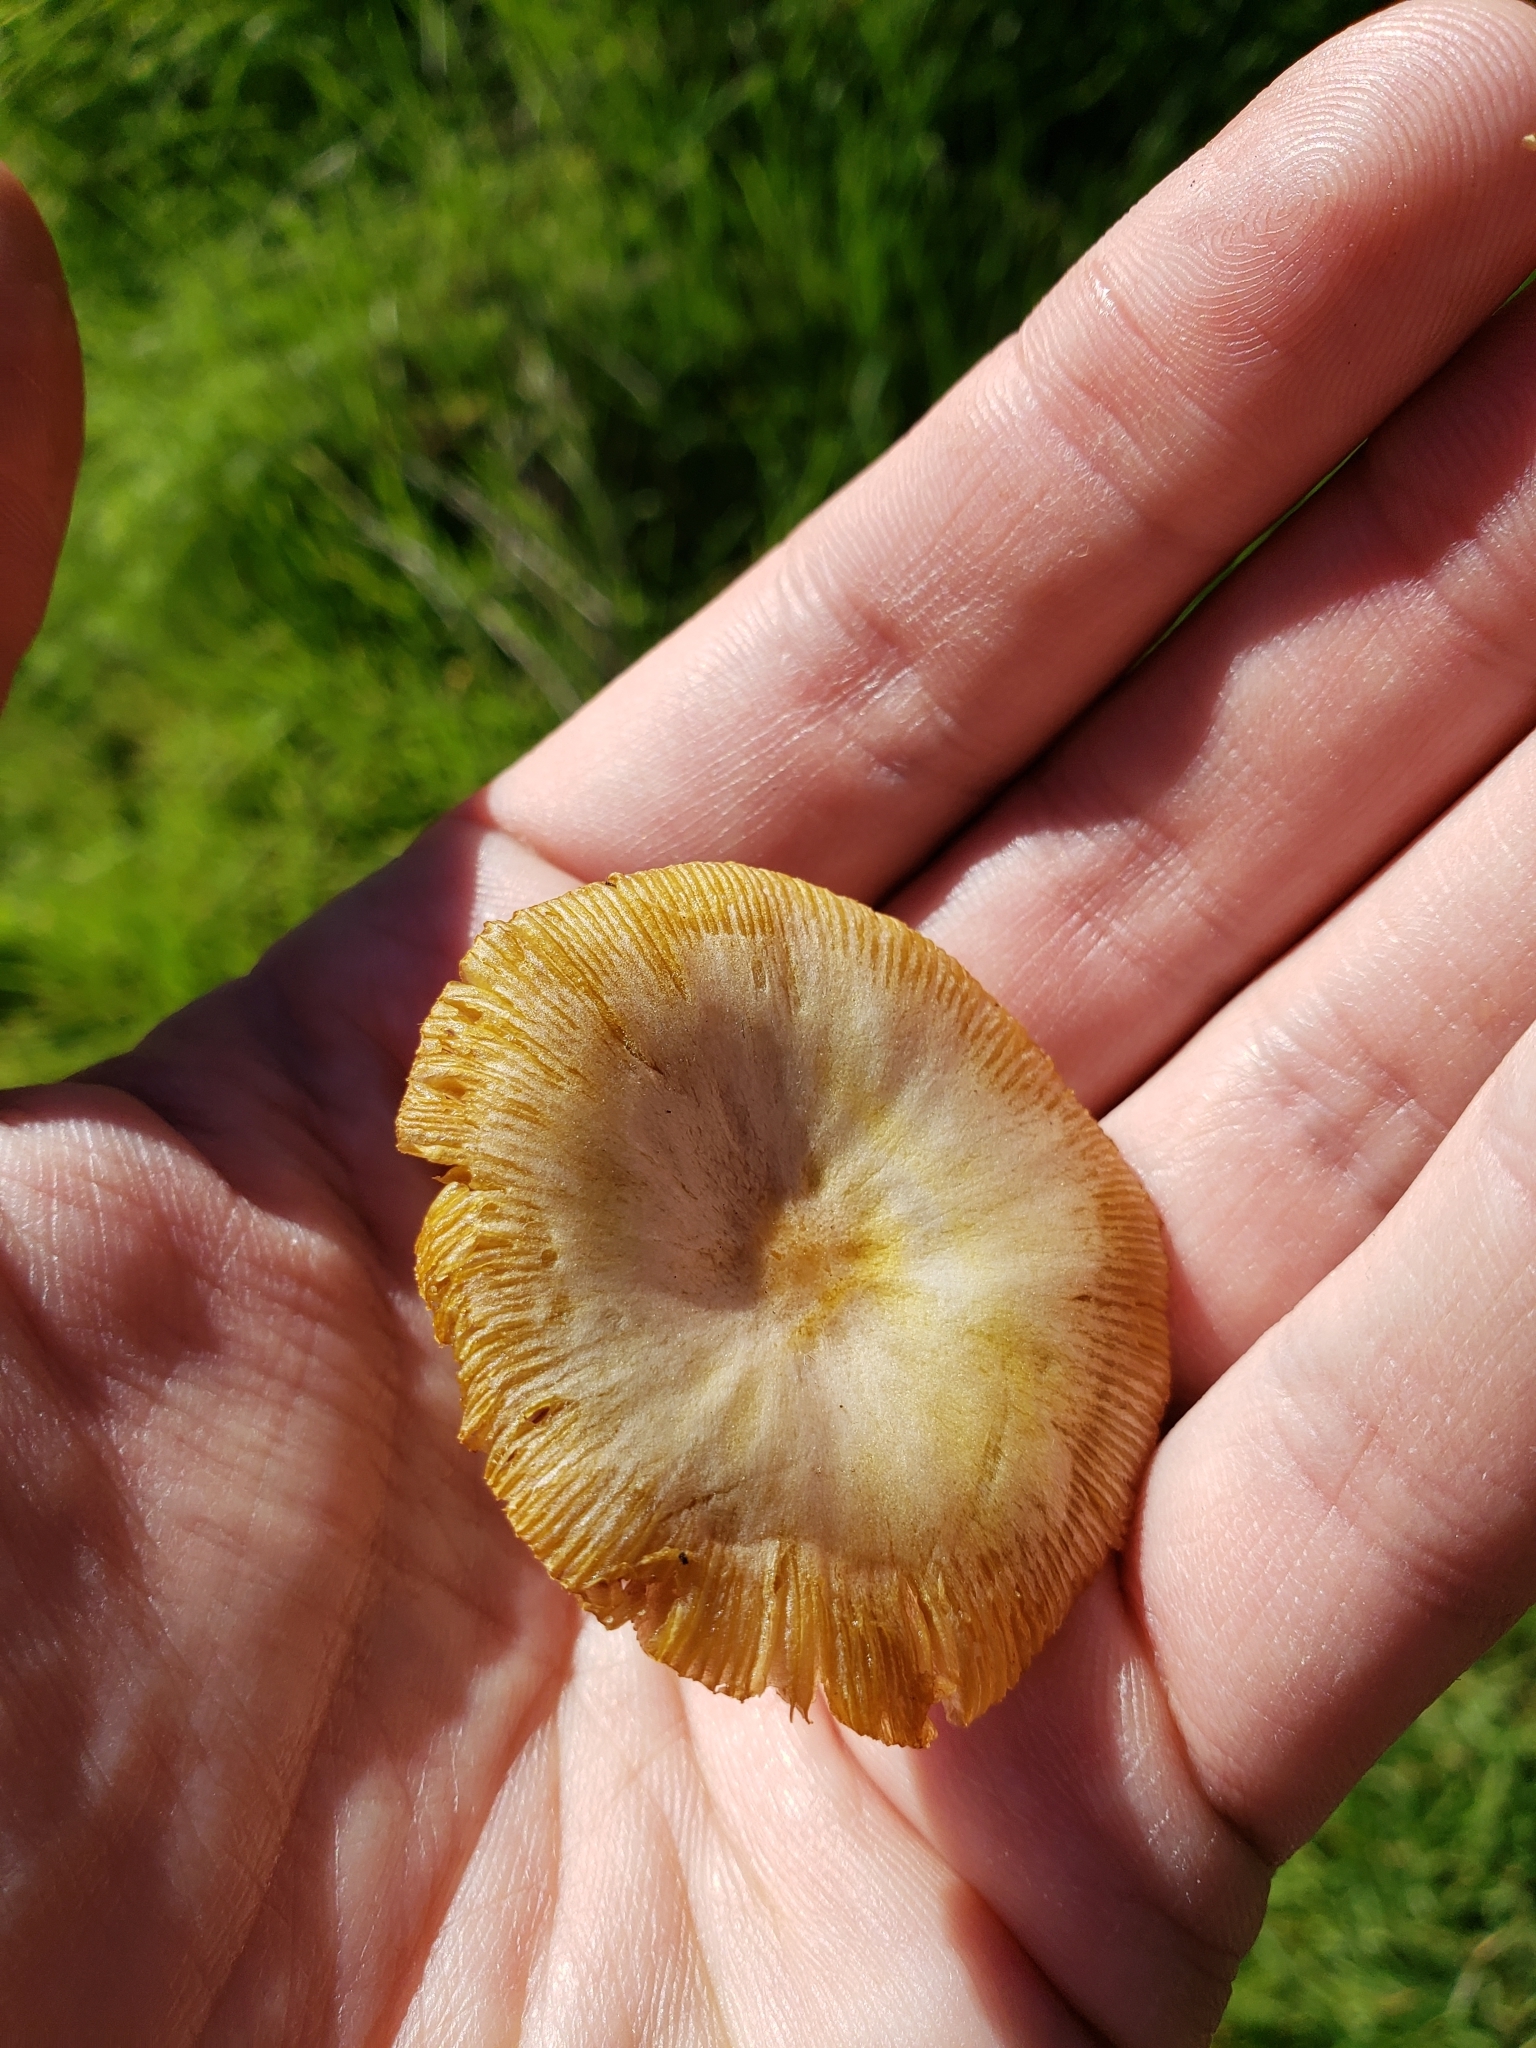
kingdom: Fungi
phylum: Basidiomycota
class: Agaricomycetes
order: Agaricales
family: Bolbitiaceae
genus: Bolbitius
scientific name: Bolbitius titubans
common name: Yellow fieldcap
